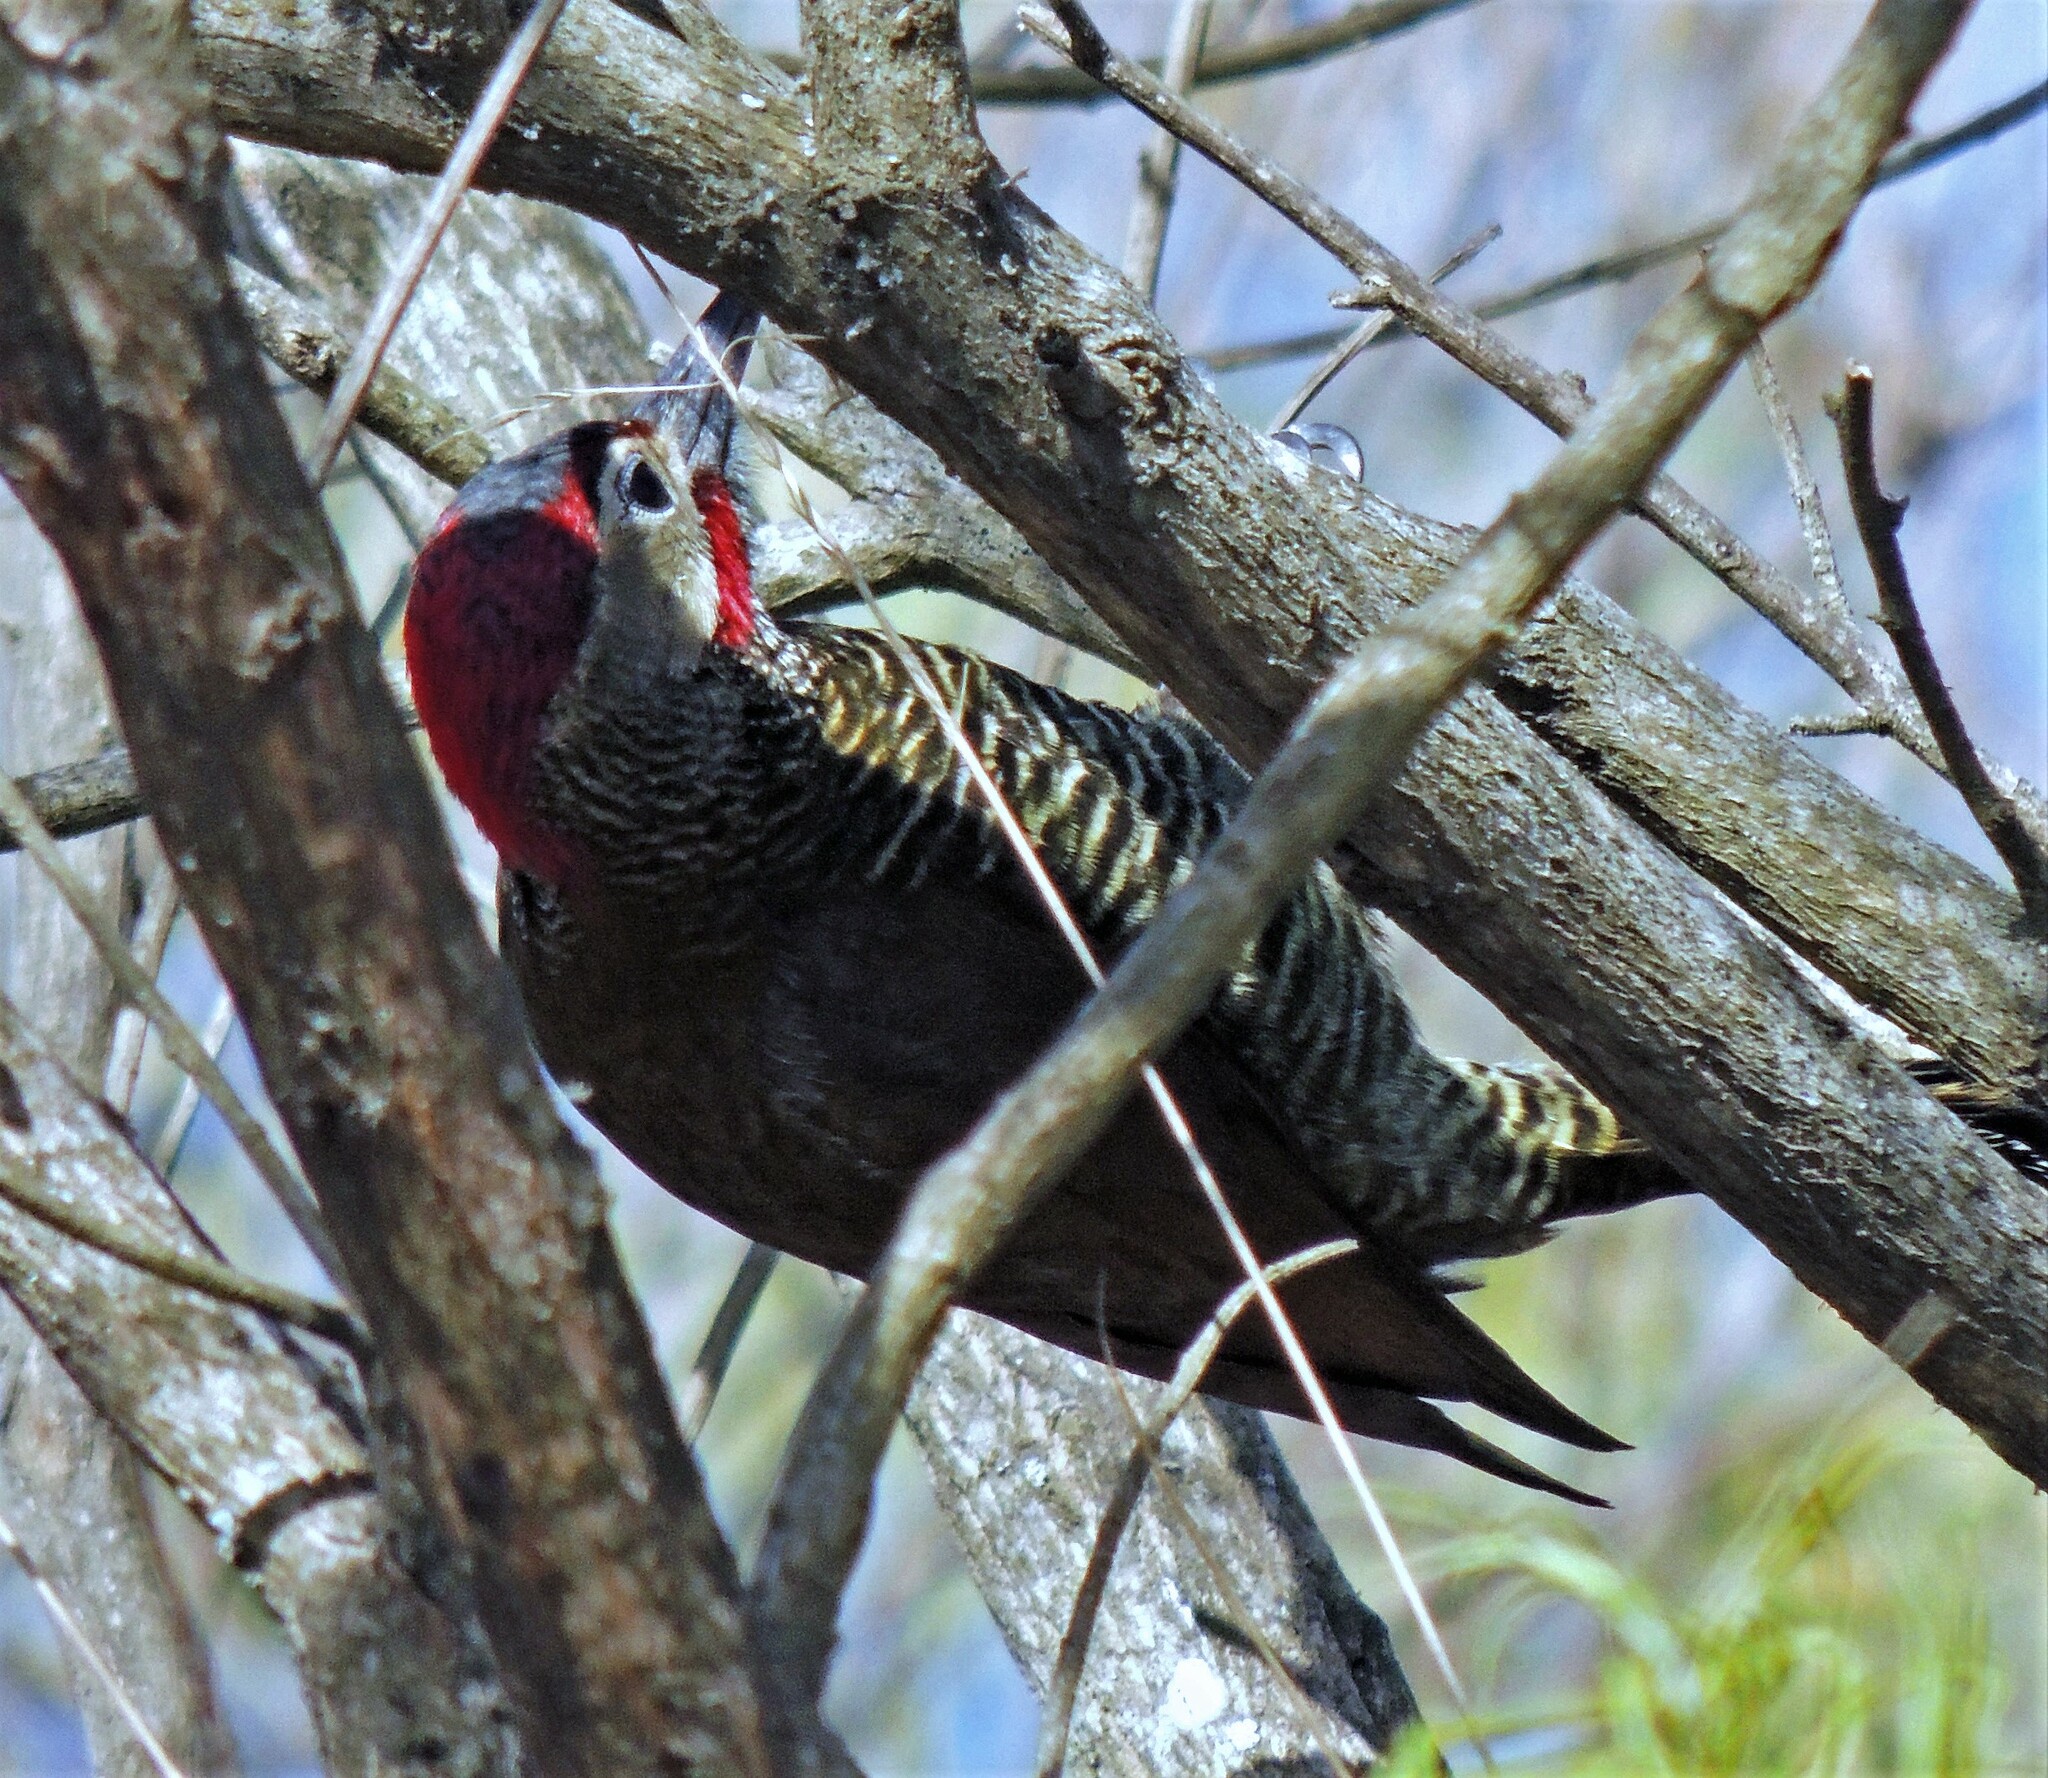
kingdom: Animalia
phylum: Chordata
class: Aves
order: Piciformes
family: Picidae
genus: Colaptes
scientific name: Colaptes rubiginosus
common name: Golden-olive woodpecker
